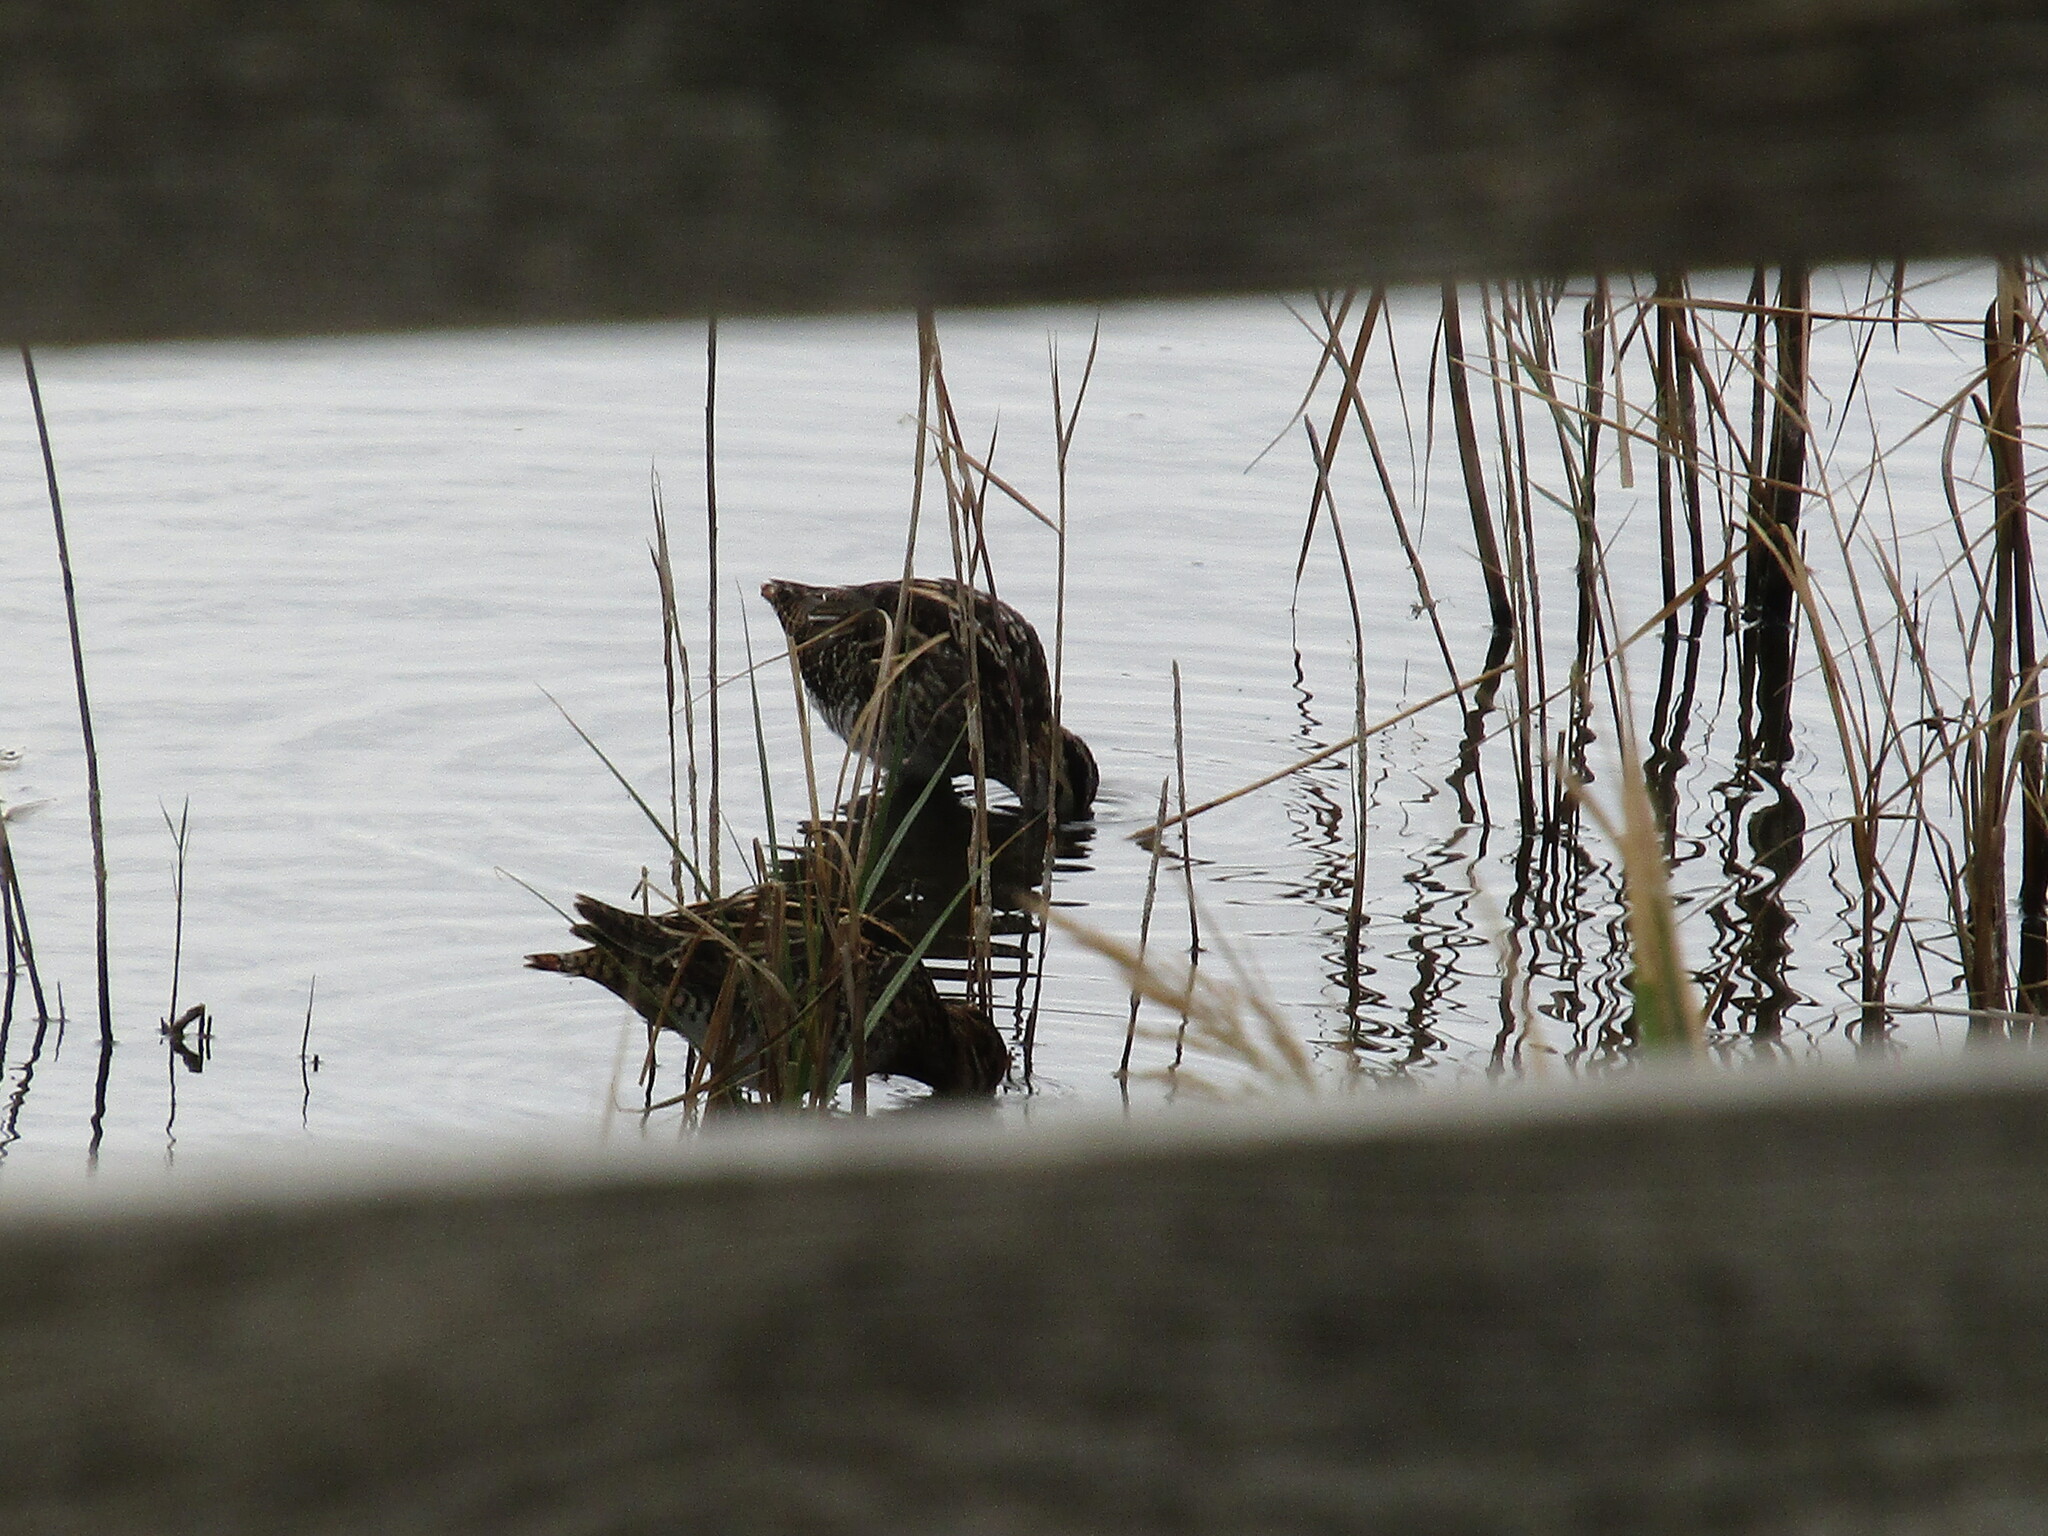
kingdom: Animalia
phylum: Chordata
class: Aves
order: Charadriiformes
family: Scolopacidae
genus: Gallinago
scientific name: Gallinago gallinago
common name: Common snipe
